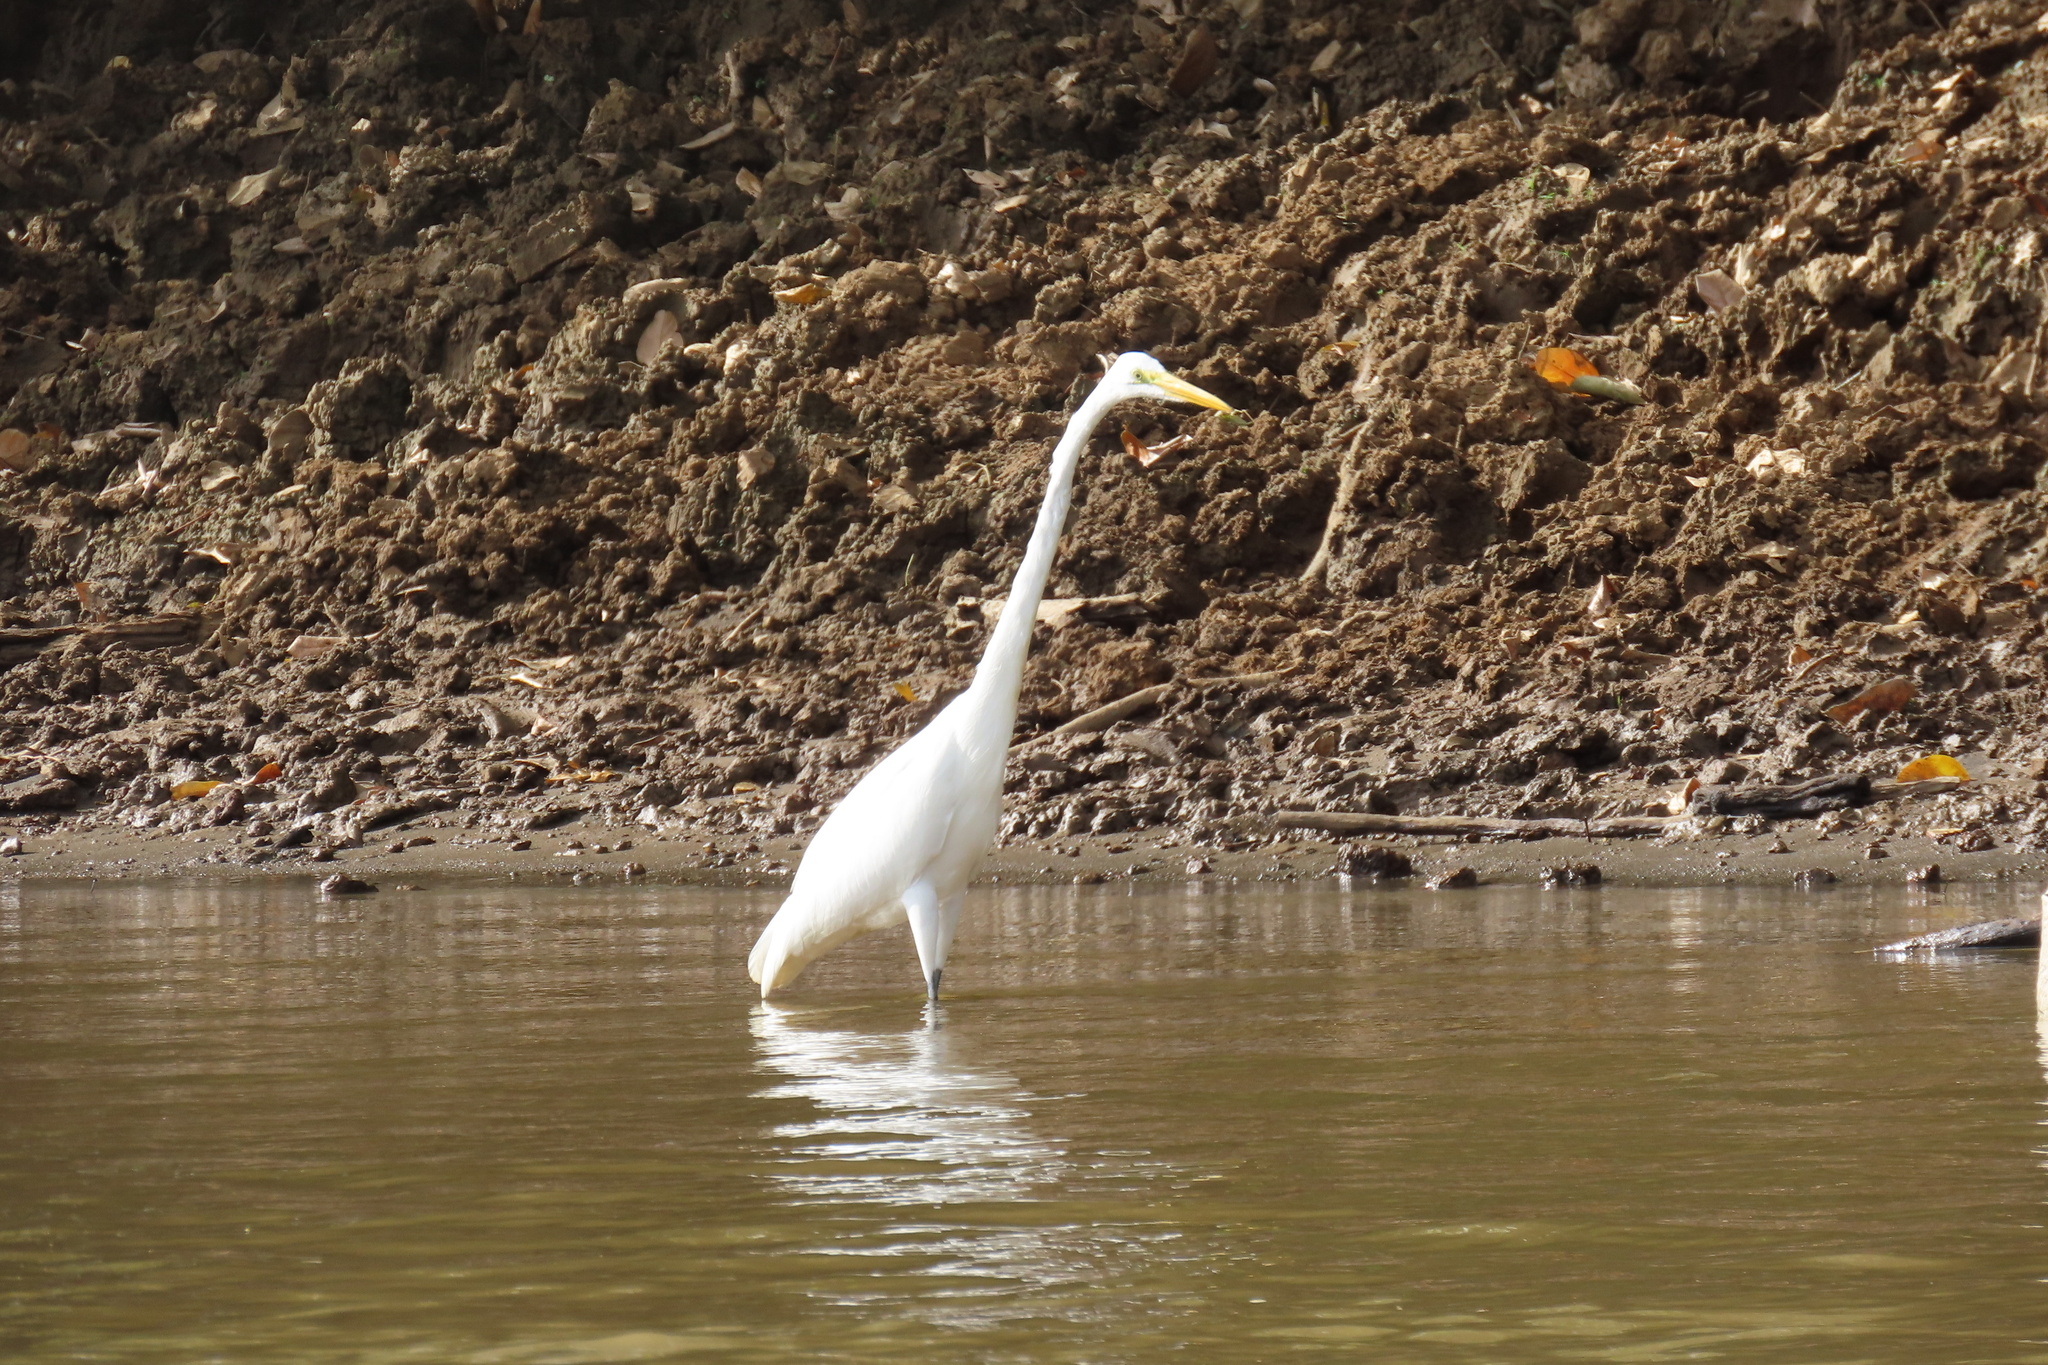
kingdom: Animalia
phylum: Chordata
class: Aves
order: Pelecaniformes
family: Ardeidae
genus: Ardea
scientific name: Ardea alba
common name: Great egret
